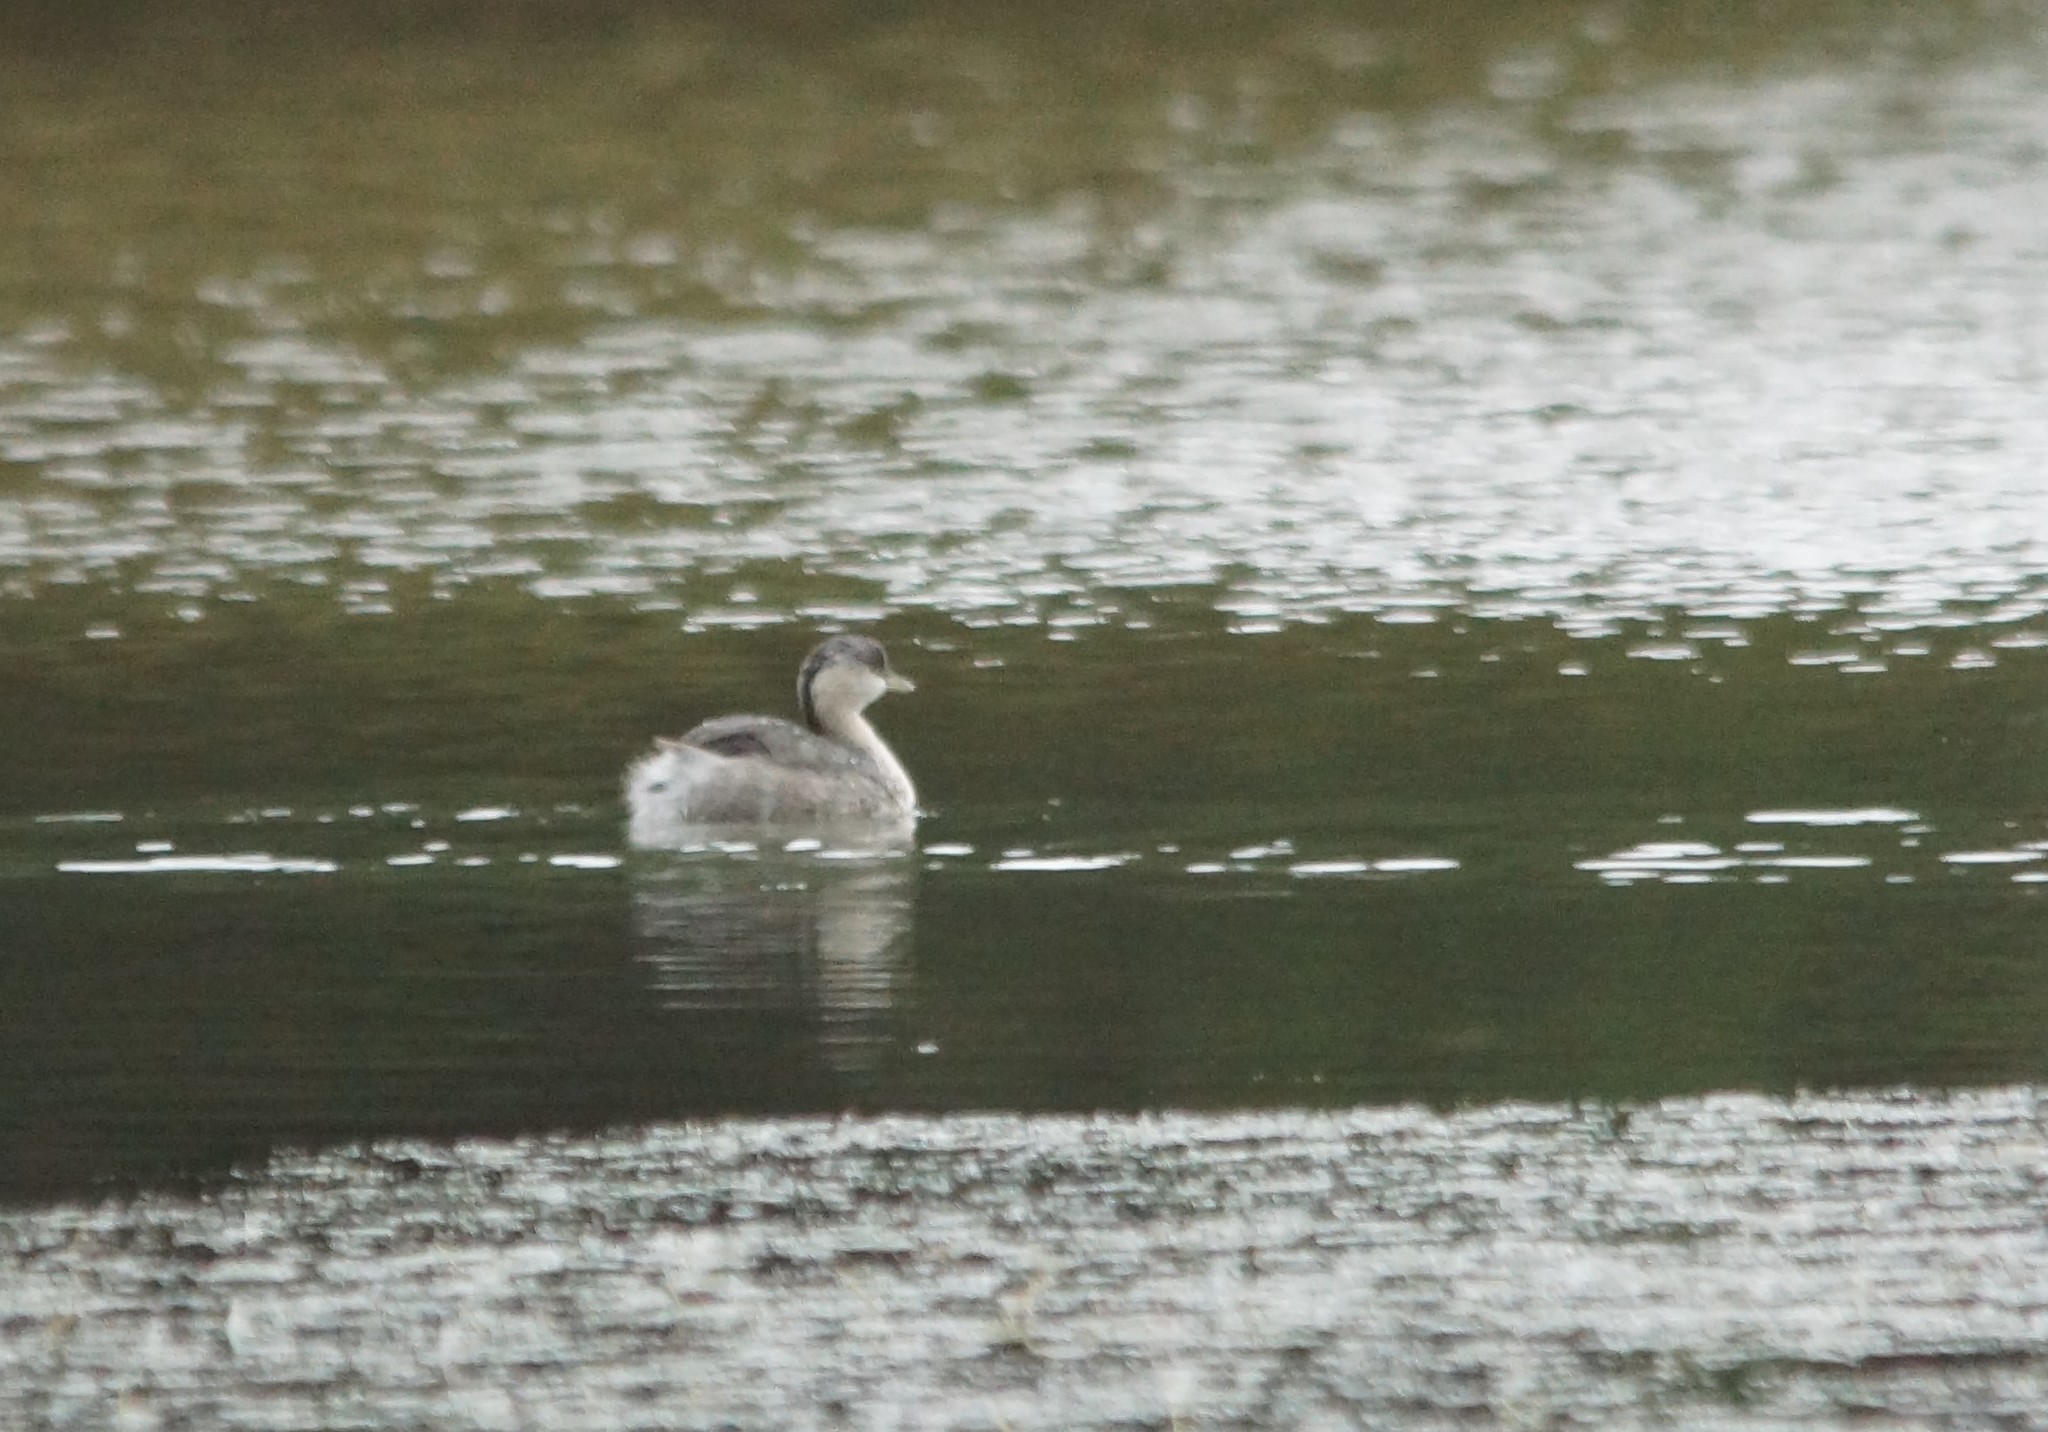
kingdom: Animalia
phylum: Chordata
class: Aves
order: Podicipediformes
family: Podicipedidae
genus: Poliocephalus
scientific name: Poliocephalus poliocephalus
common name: Hoary-headed grebe
